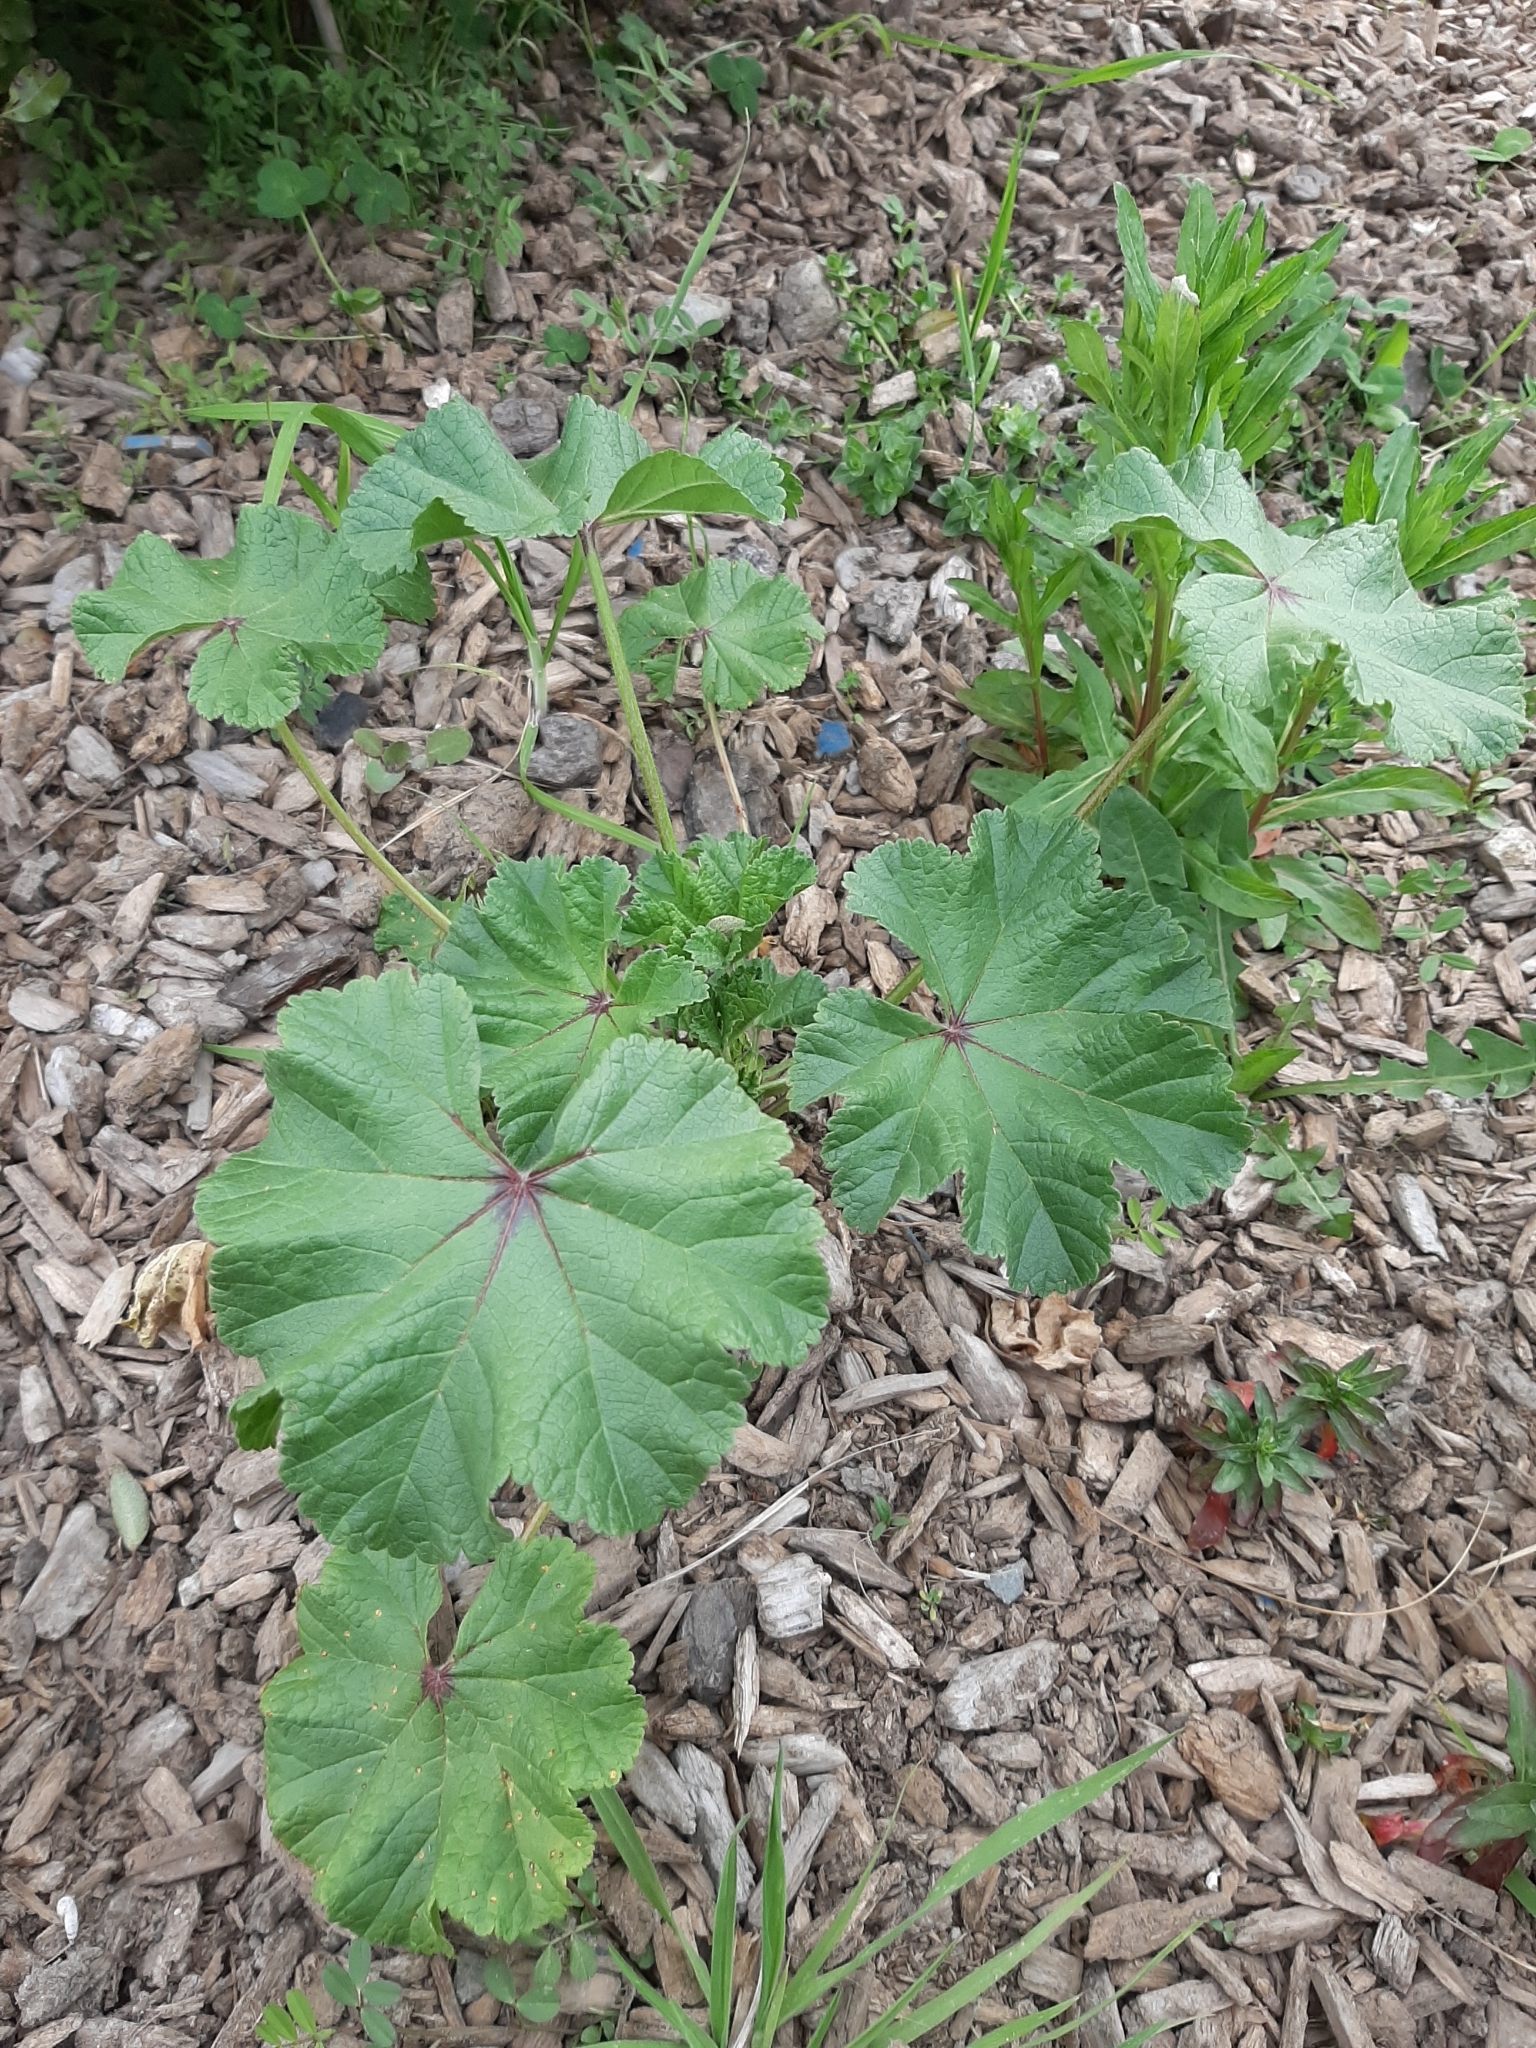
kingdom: Plantae
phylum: Tracheophyta
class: Magnoliopsida
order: Malvales
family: Malvaceae
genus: Malva
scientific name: Malva sylvestris
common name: Common mallow
